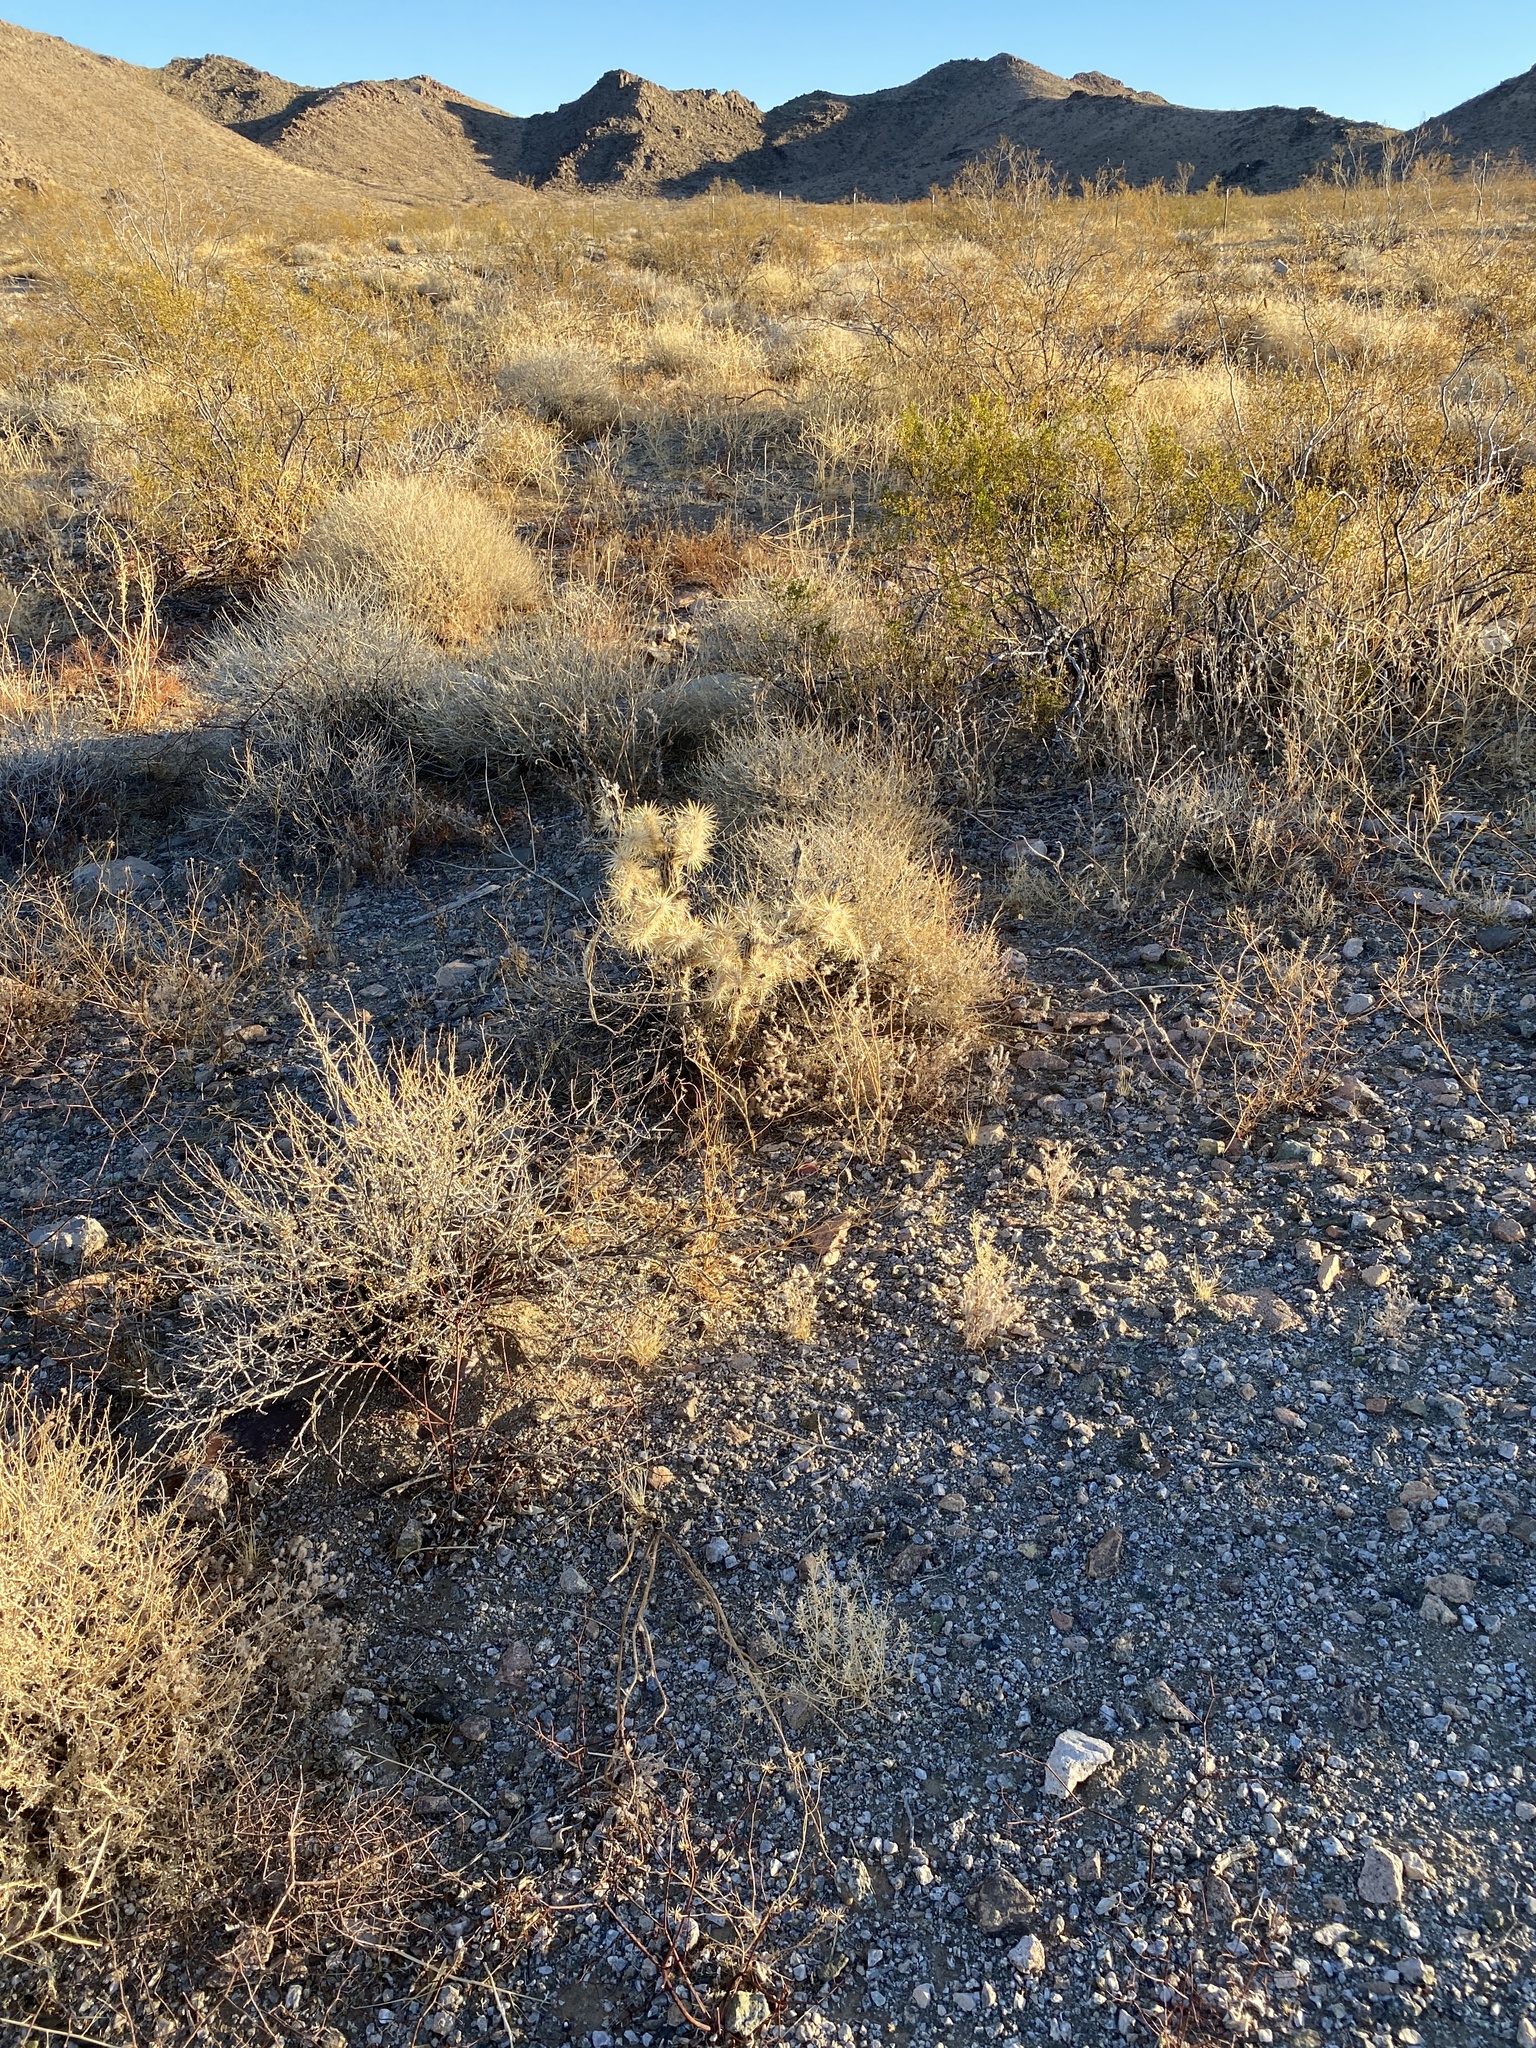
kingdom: Plantae
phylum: Tracheophyta
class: Magnoliopsida
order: Caryophyllales
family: Cactaceae
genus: Cylindropuntia
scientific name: Cylindropuntia echinocarpa
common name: Ground cholla
